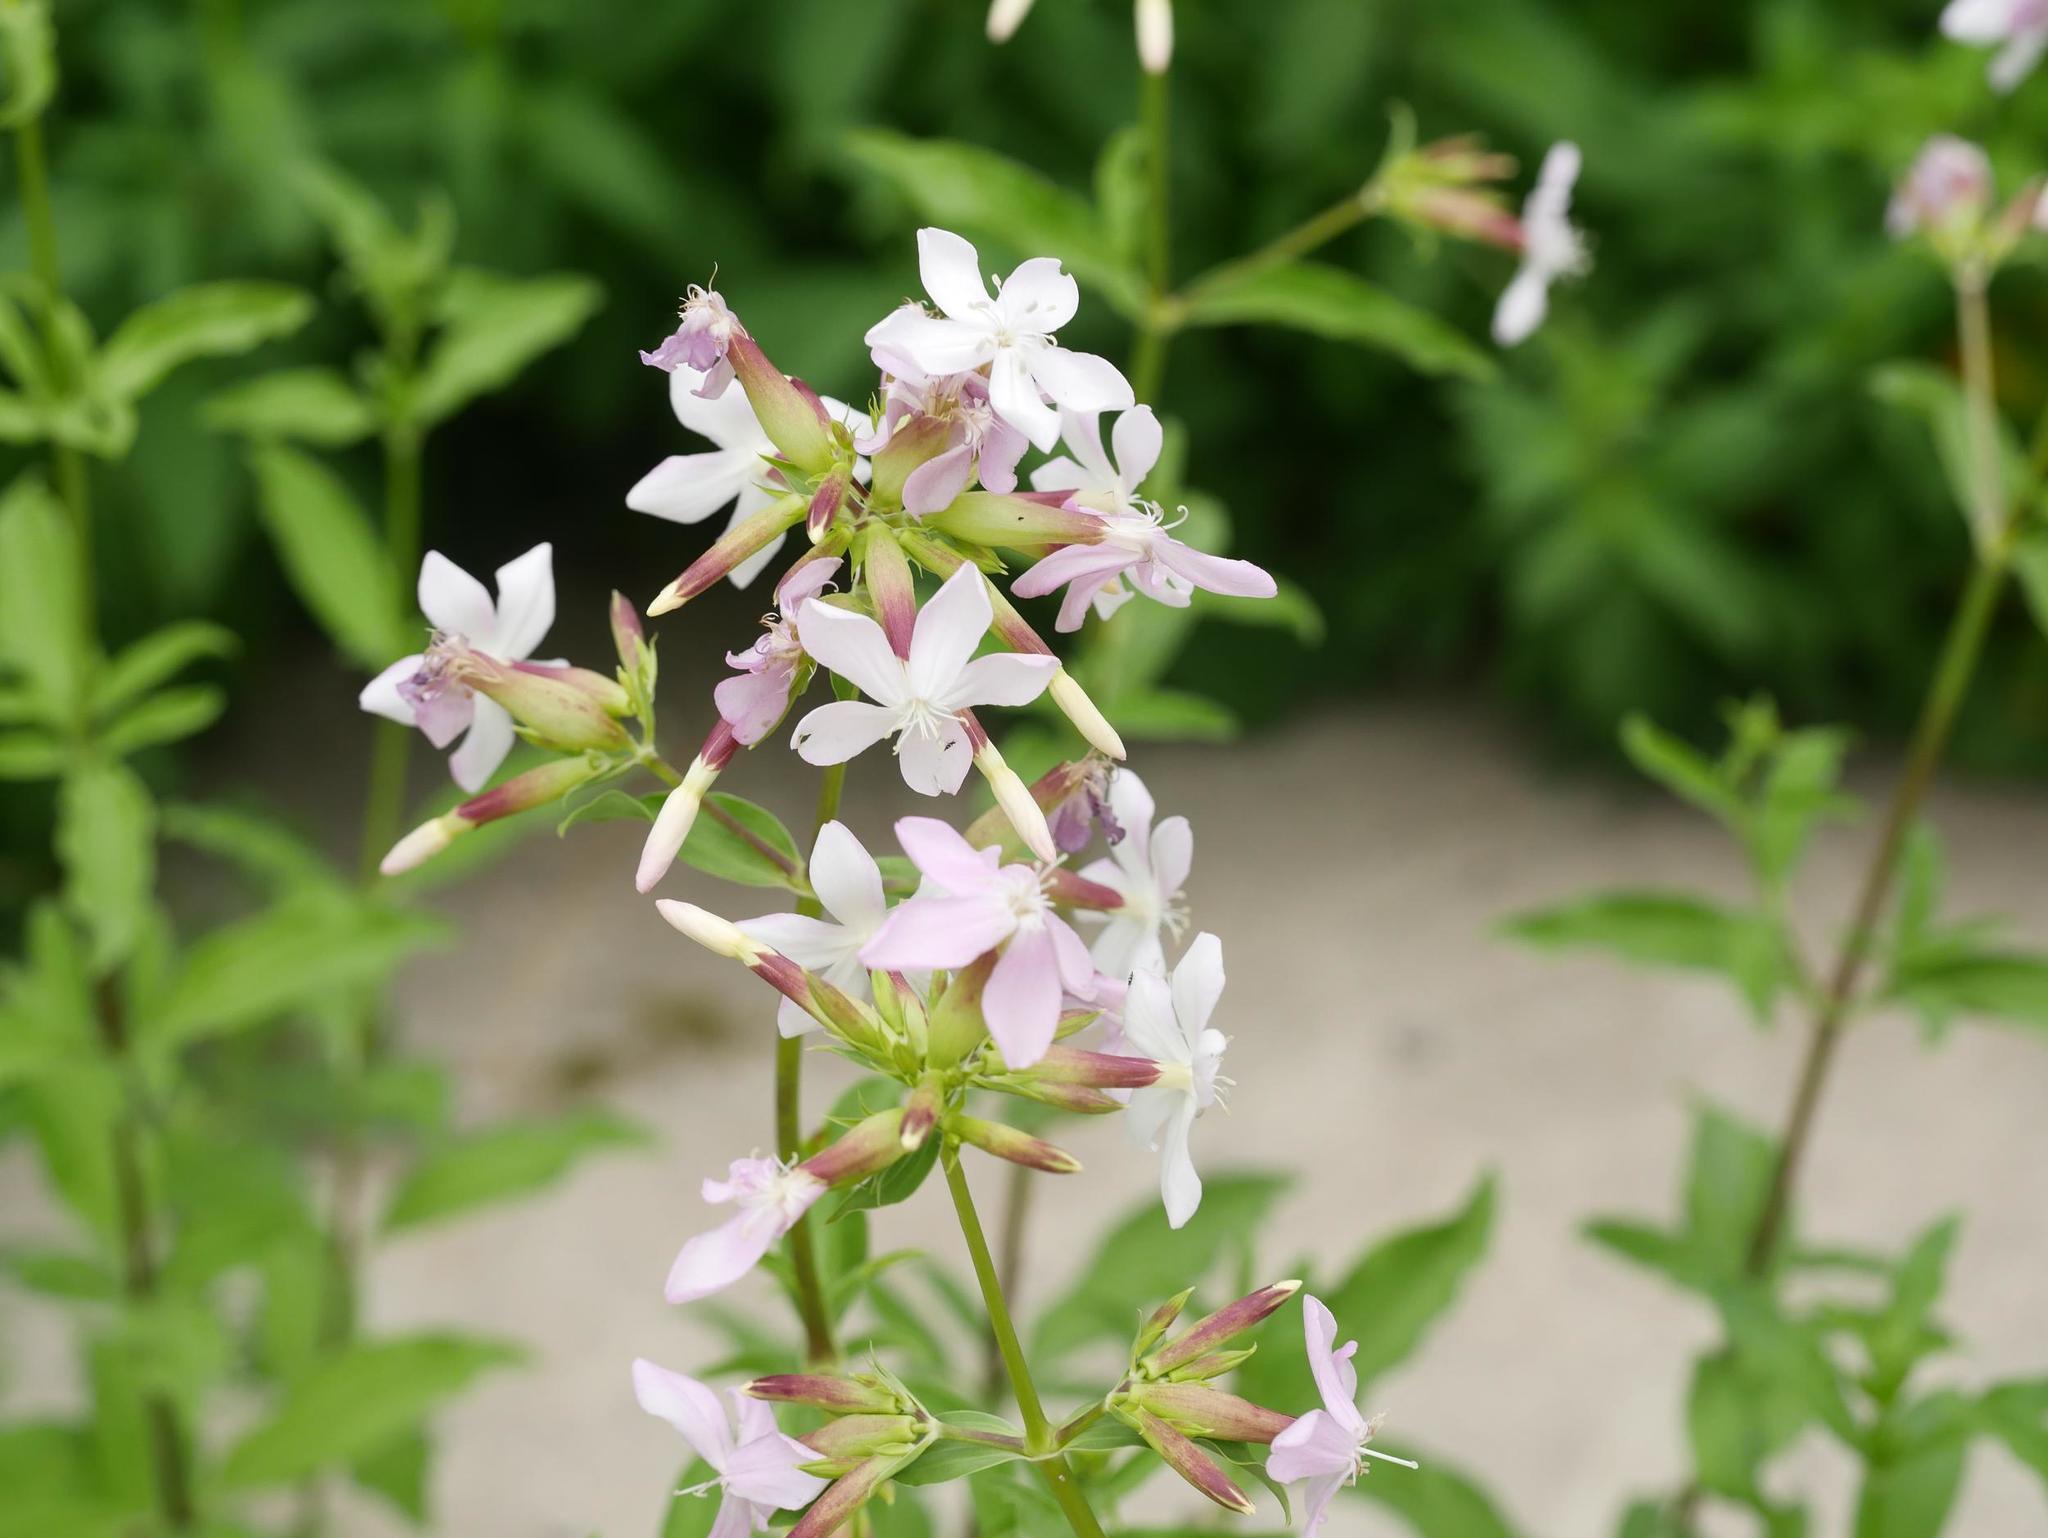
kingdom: Plantae
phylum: Tracheophyta
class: Magnoliopsida
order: Caryophyllales
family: Caryophyllaceae
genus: Saponaria
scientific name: Saponaria officinalis
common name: Soapwort
